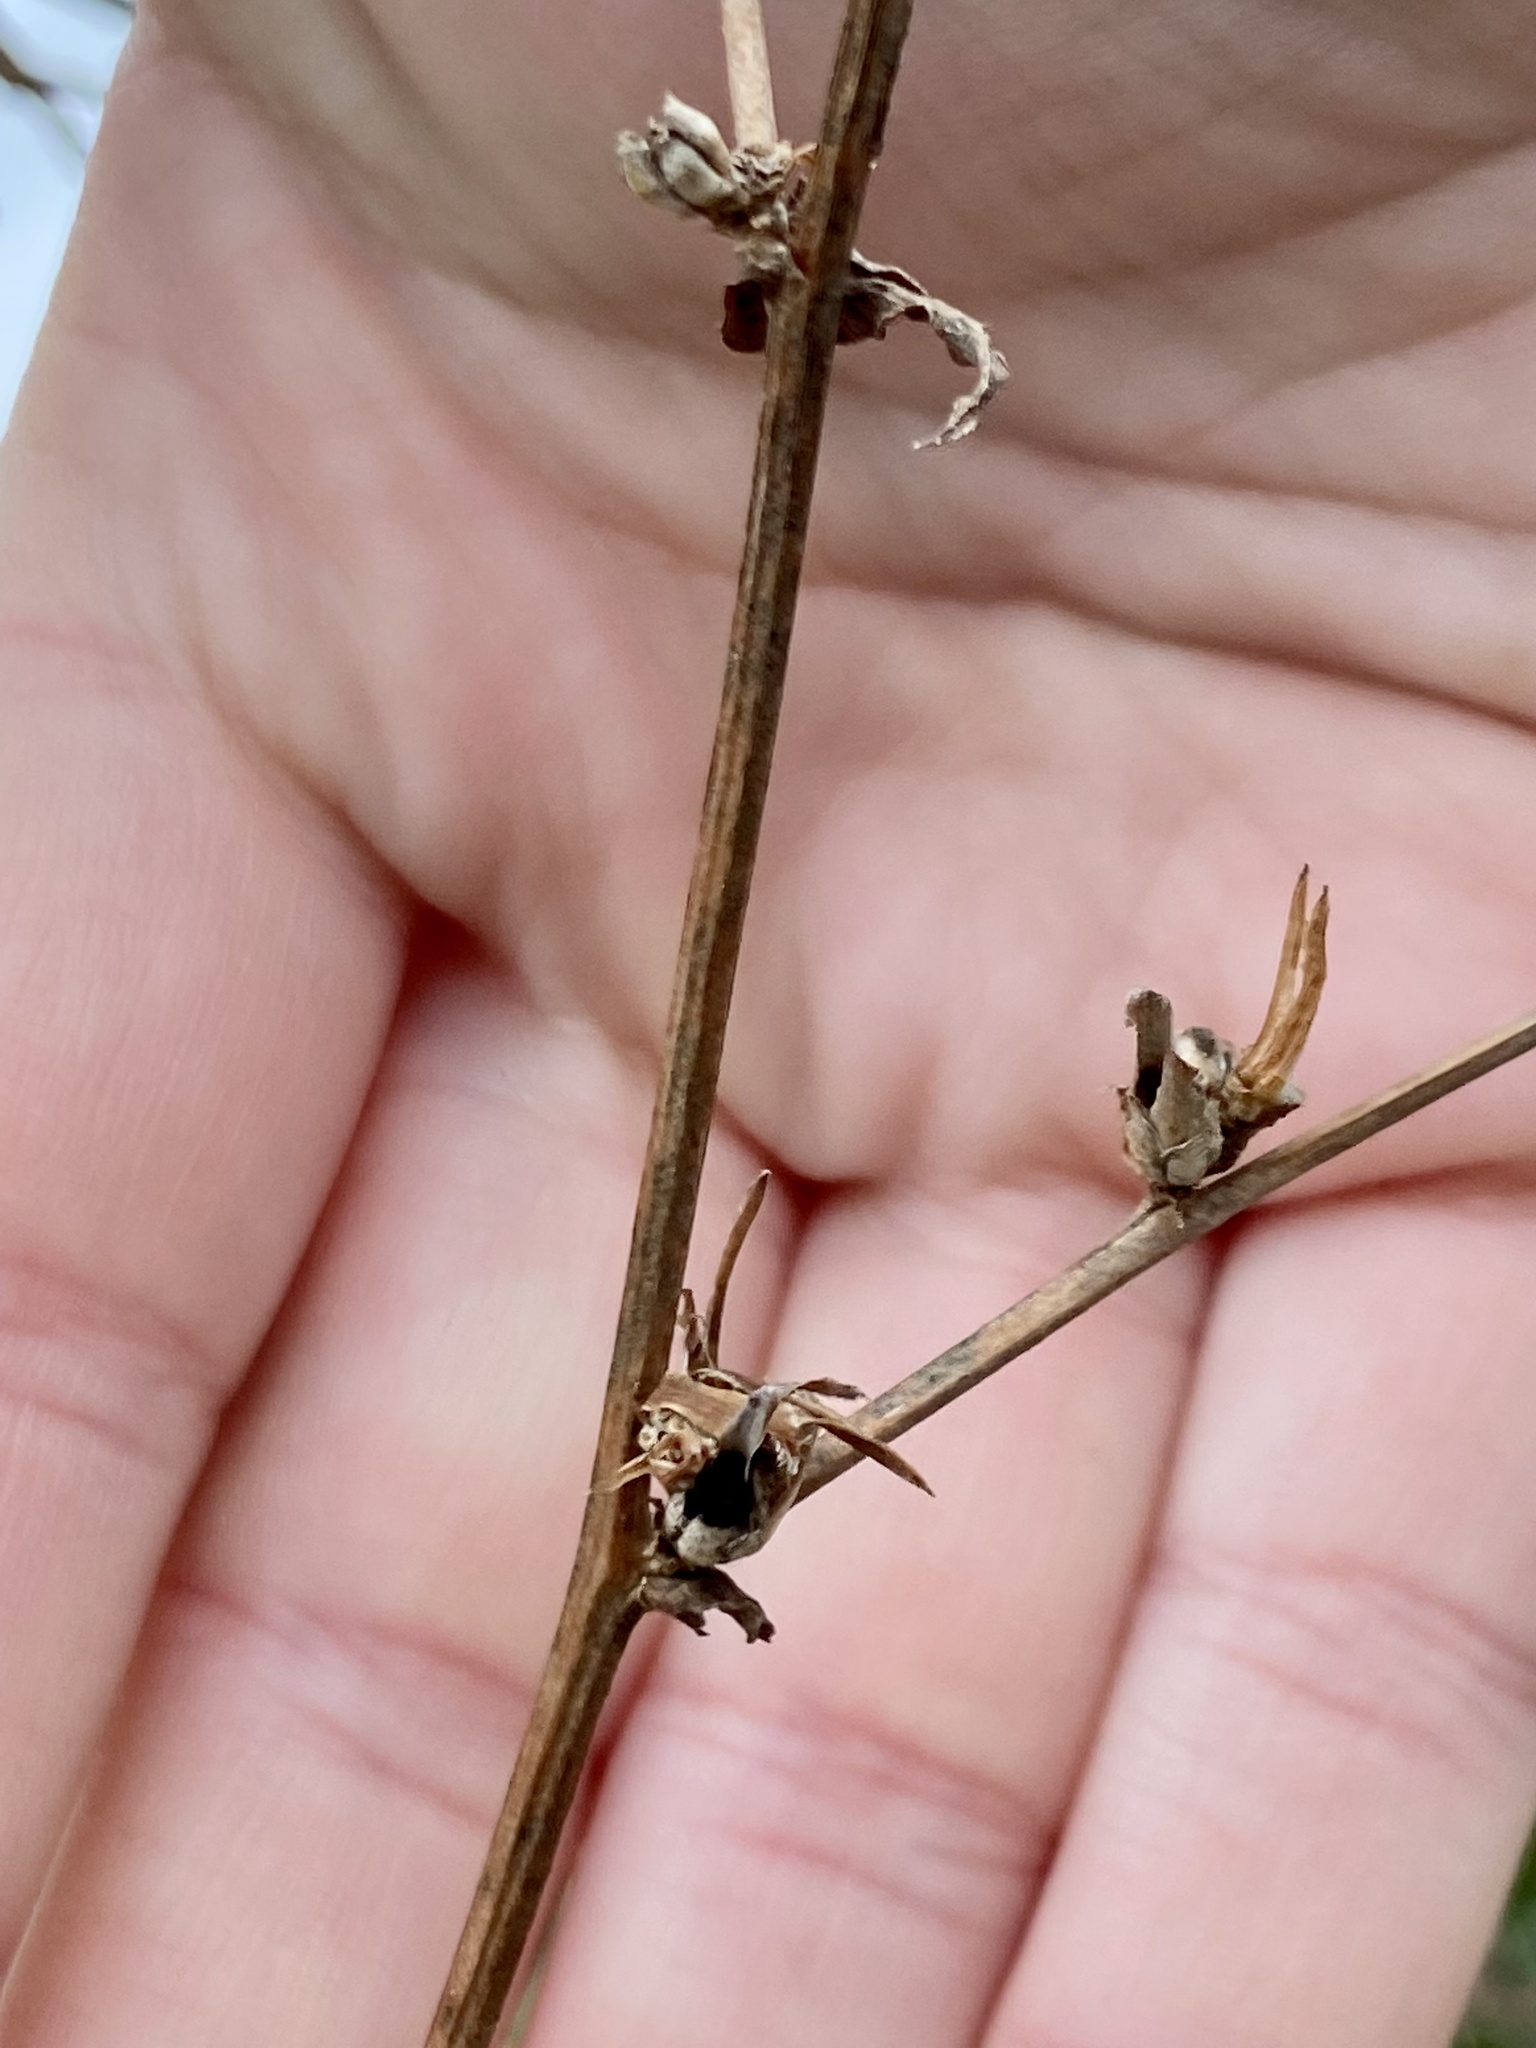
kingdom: Plantae
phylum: Tracheophyta
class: Magnoliopsida
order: Asterales
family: Asteraceae
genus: Cichorium
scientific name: Cichorium intybus
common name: Chicory
